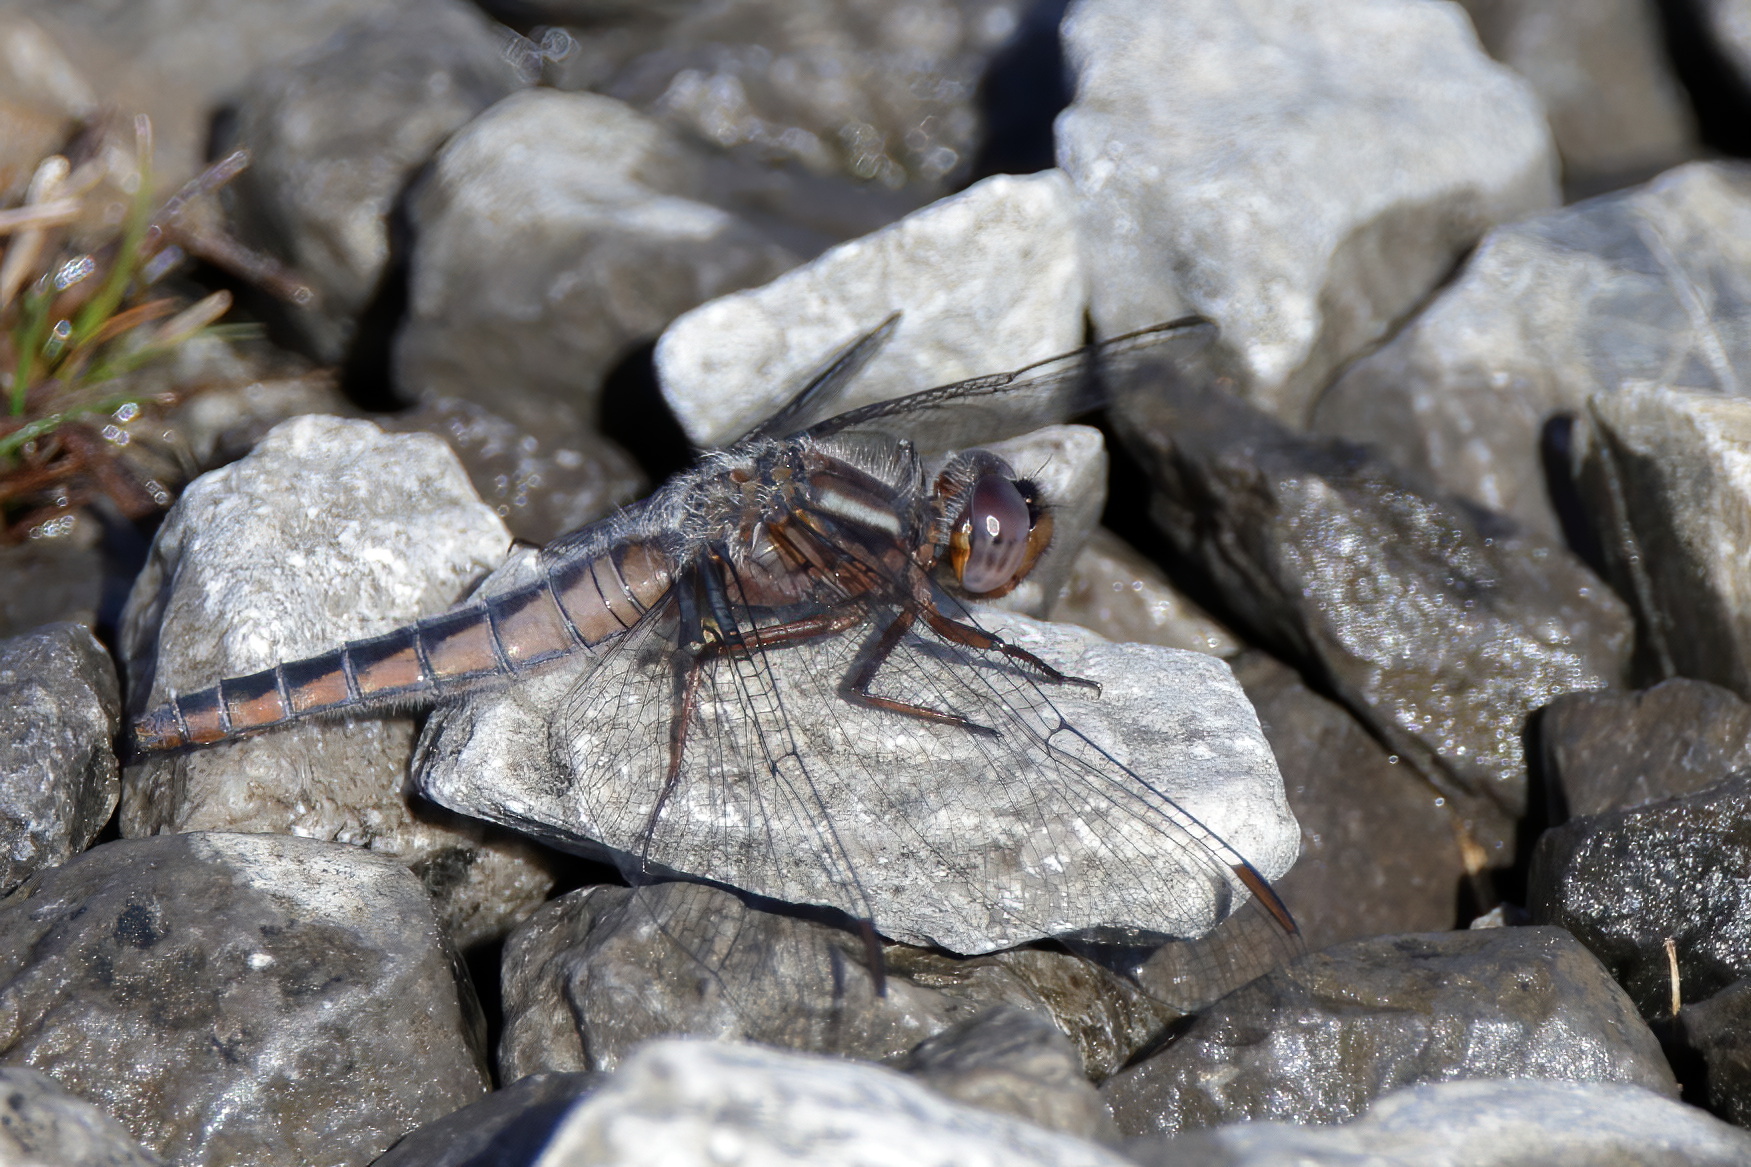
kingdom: Animalia
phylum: Arthropoda
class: Insecta
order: Odonata
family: Libellulidae
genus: Ladona
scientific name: Ladona deplanata
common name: Blue corporal
